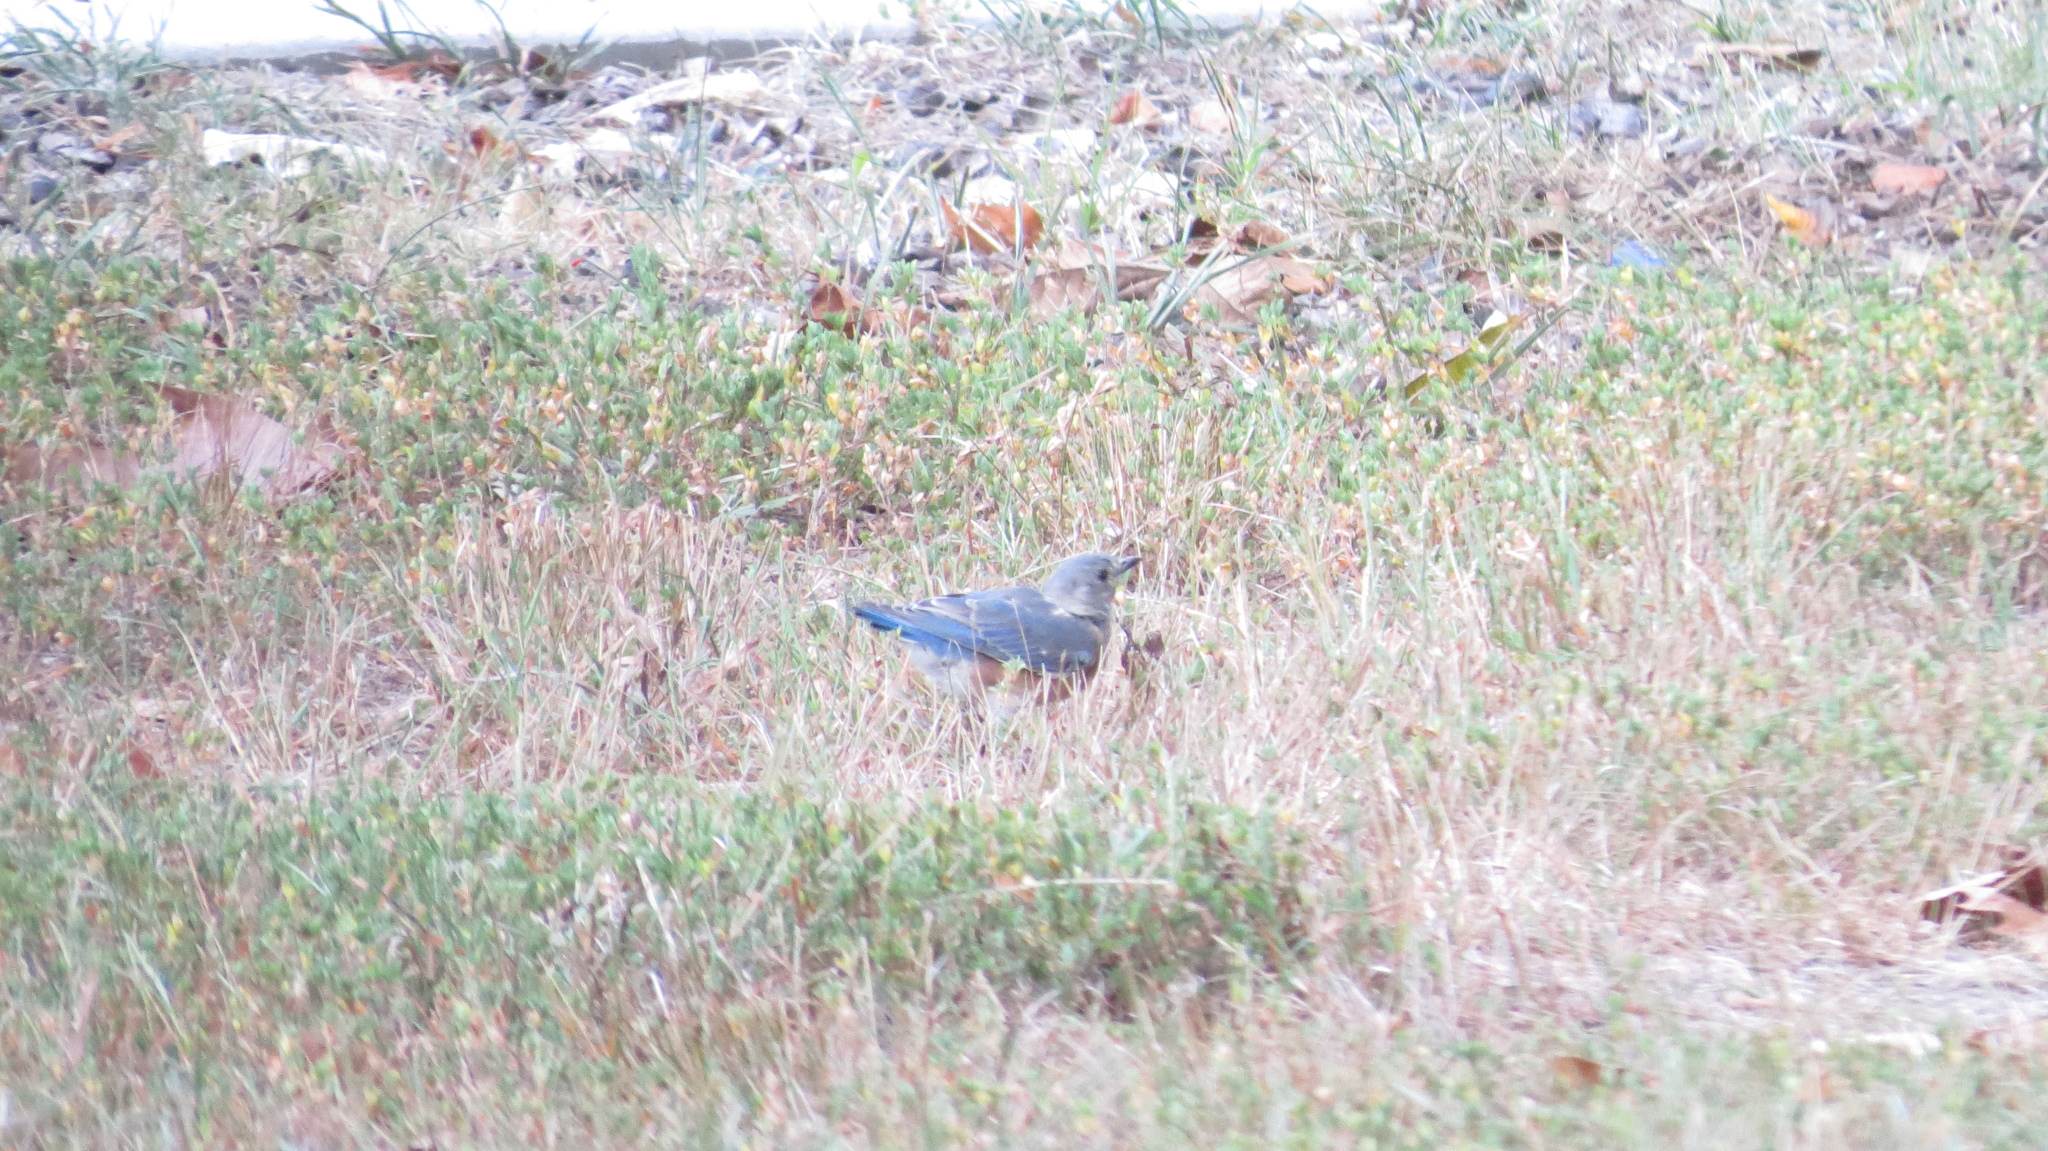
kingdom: Animalia
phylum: Chordata
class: Aves
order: Passeriformes
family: Turdidae
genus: Sialia
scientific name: Sialia sialis
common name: Eastern bluebird
